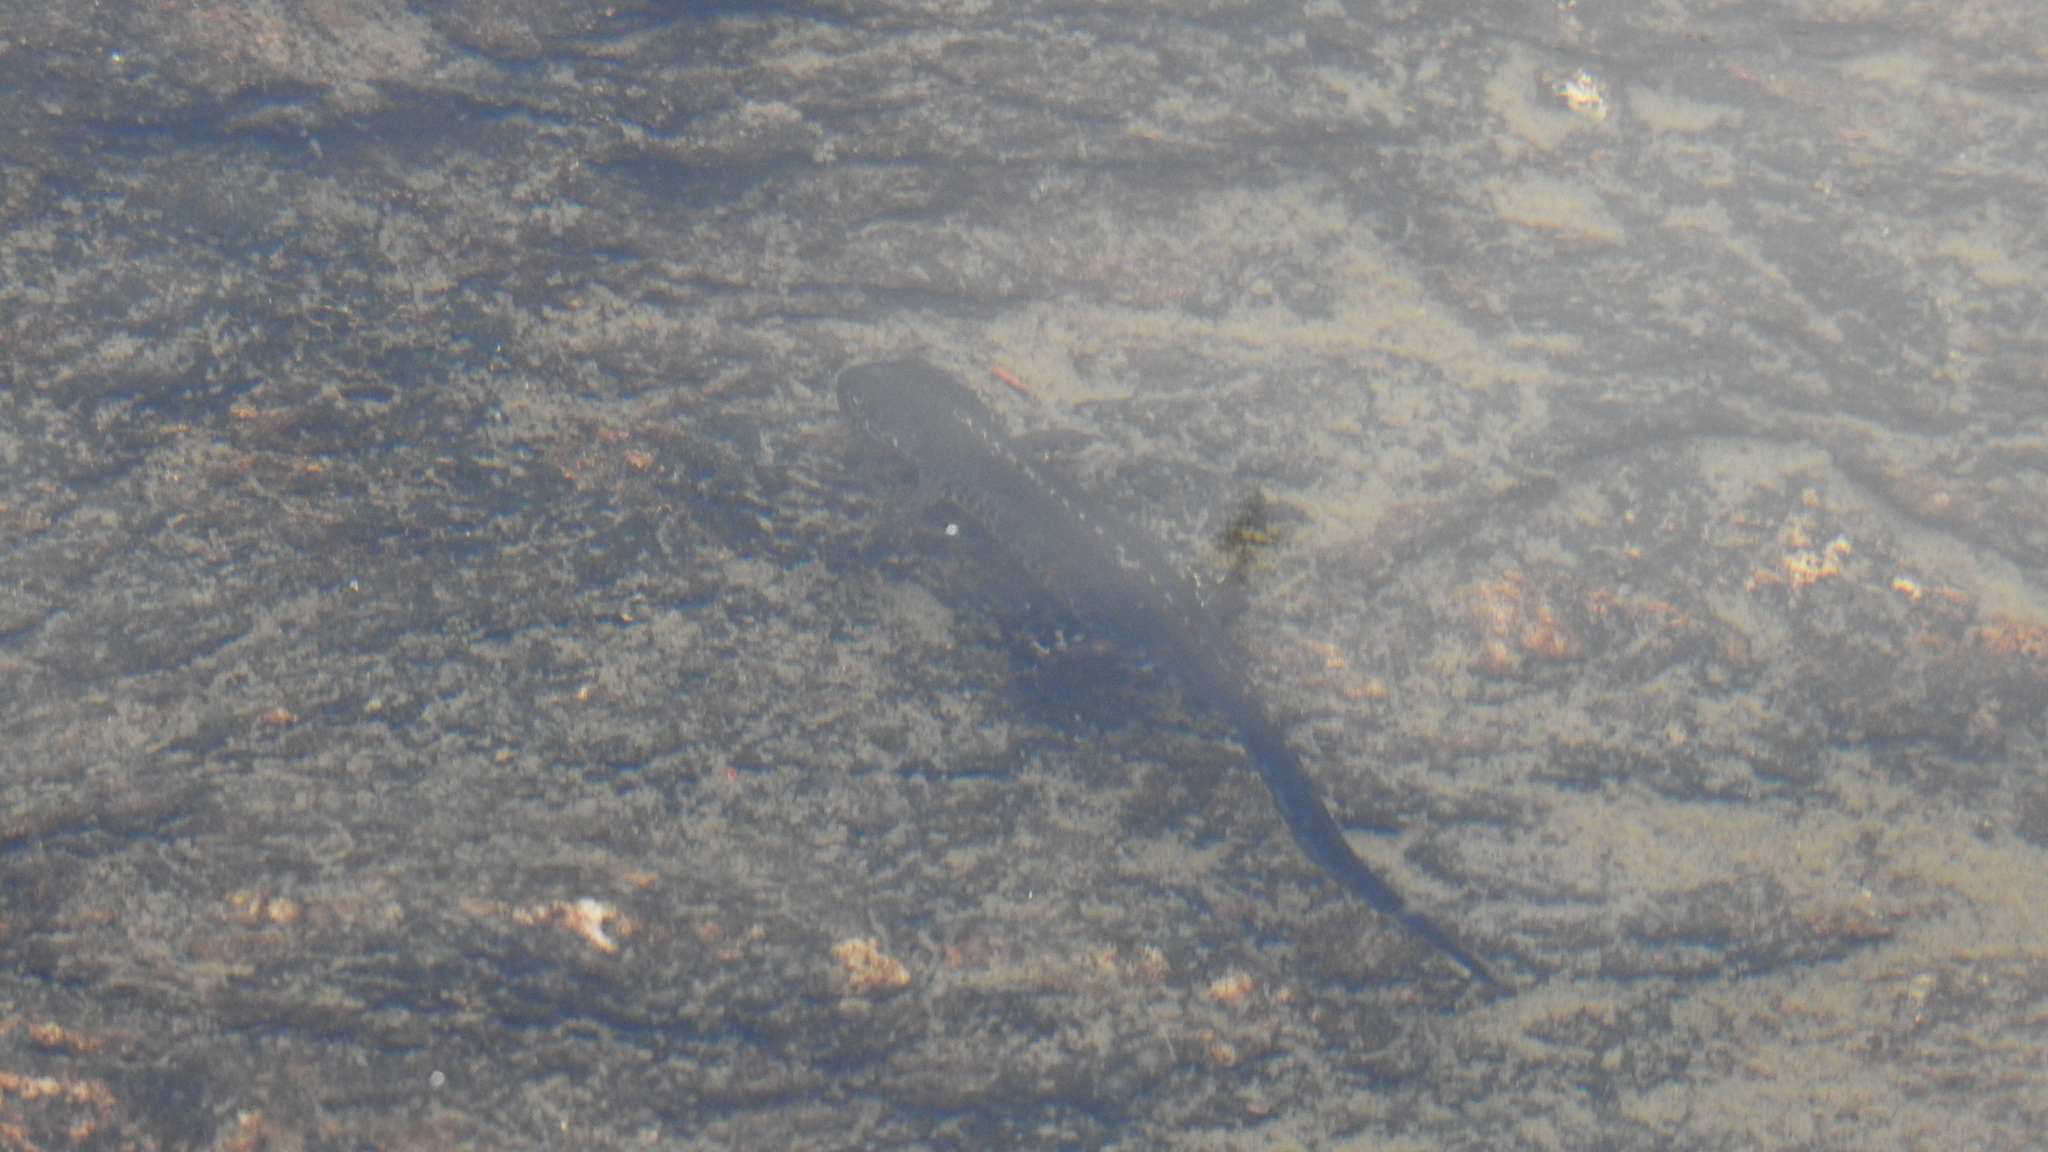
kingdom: Animalia
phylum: Chordata
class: Amphibia
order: Caudata
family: Salamandridae
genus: Ichthyosaura
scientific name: Ichthyosaura alpestris
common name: Alpine newt
